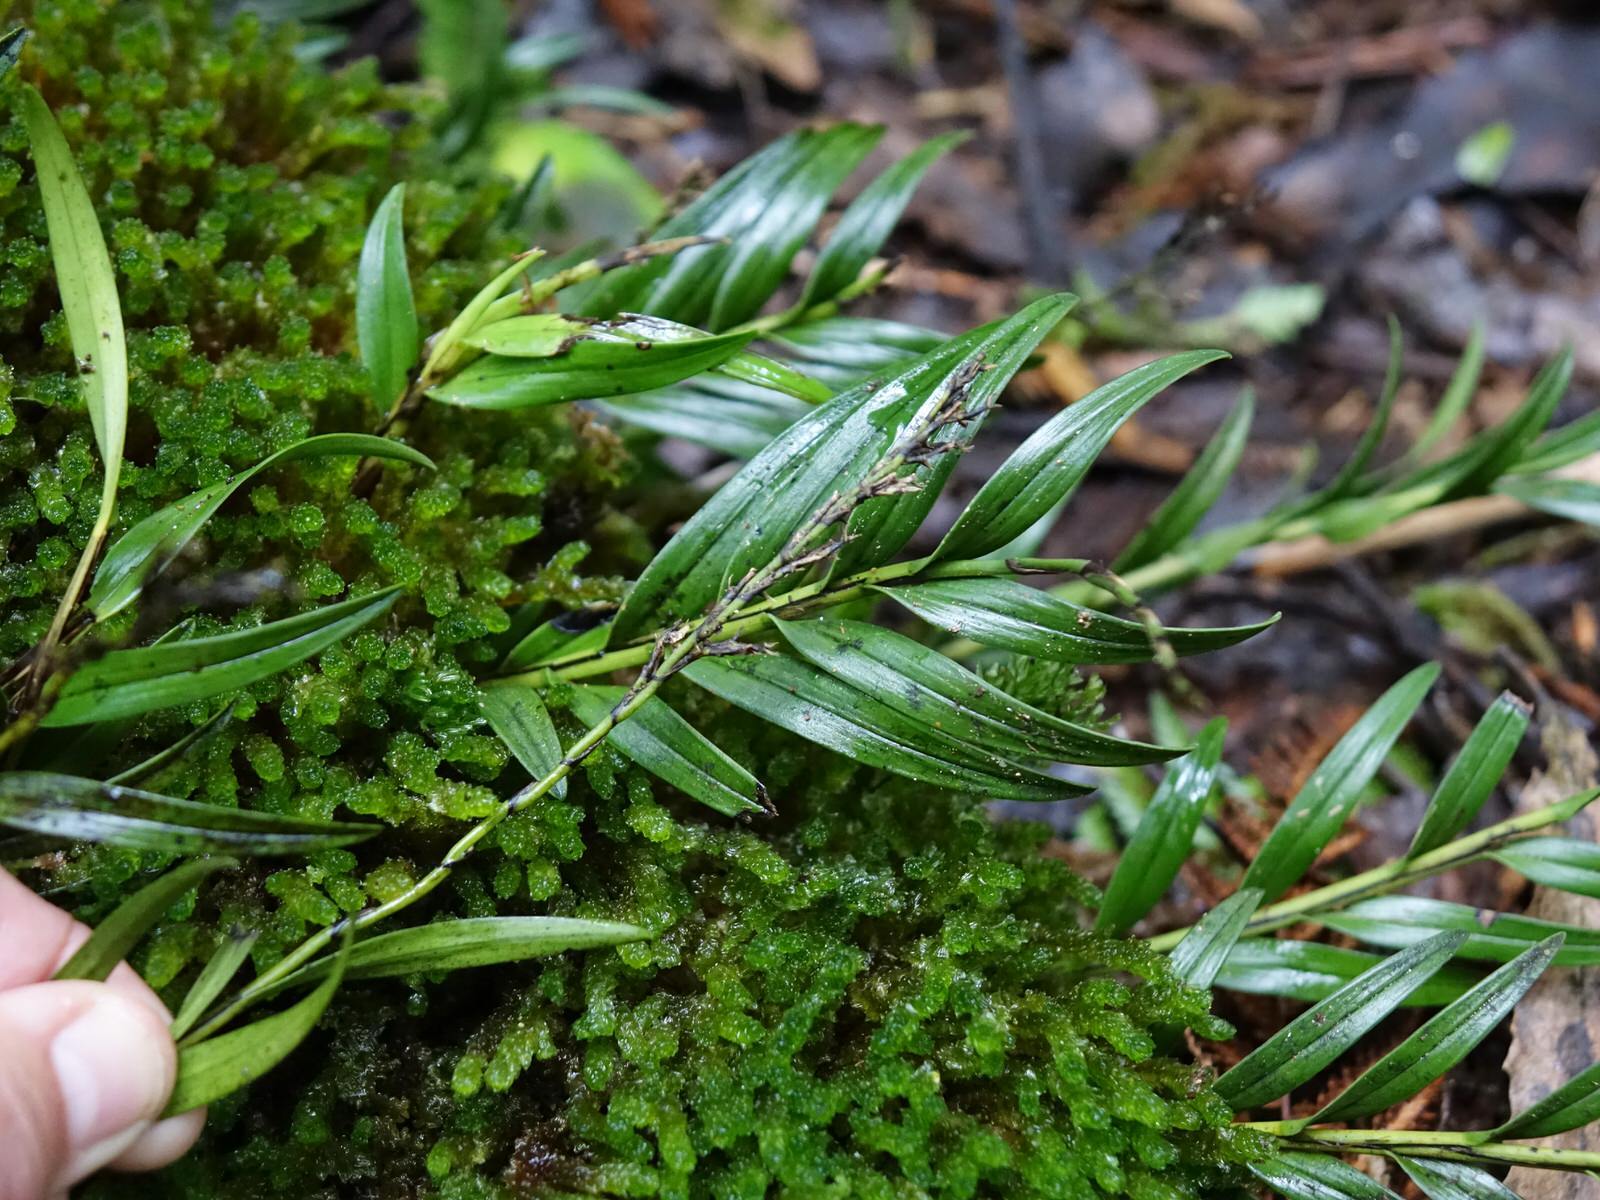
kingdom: Plantae
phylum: Tracheophyta
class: Liliopsida
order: Asparagales
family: Orchidaceae
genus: Earina
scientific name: Earina autumnalis
